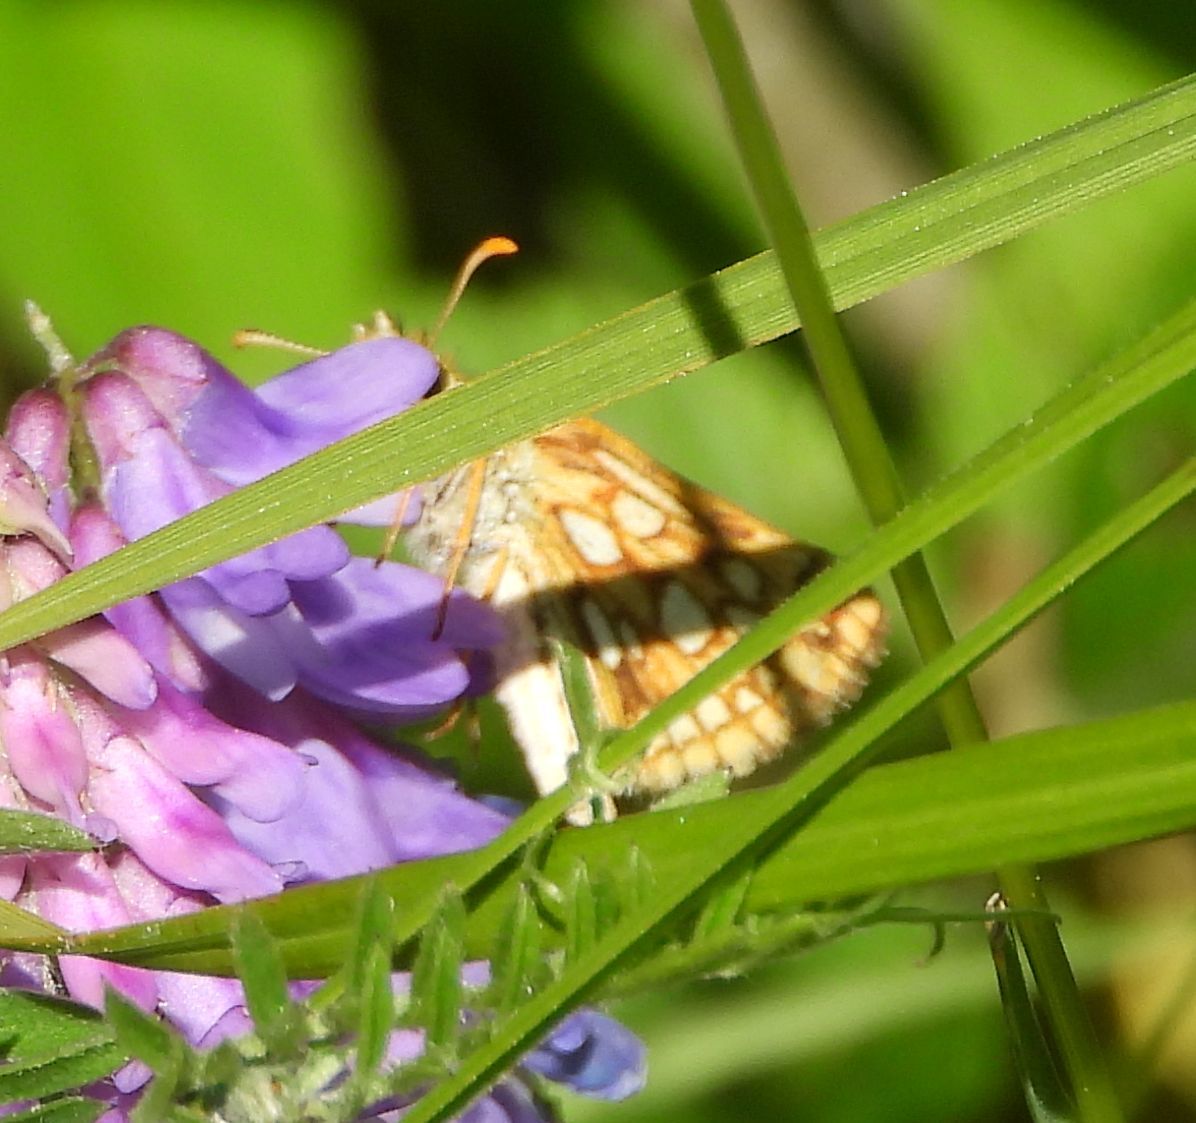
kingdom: Animalia
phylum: Arthropoda
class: Insecta
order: Lepidoptera
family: Hesperiidae
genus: Carterocephalus
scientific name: Carterocephalus mandan
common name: Arctic skipperling
